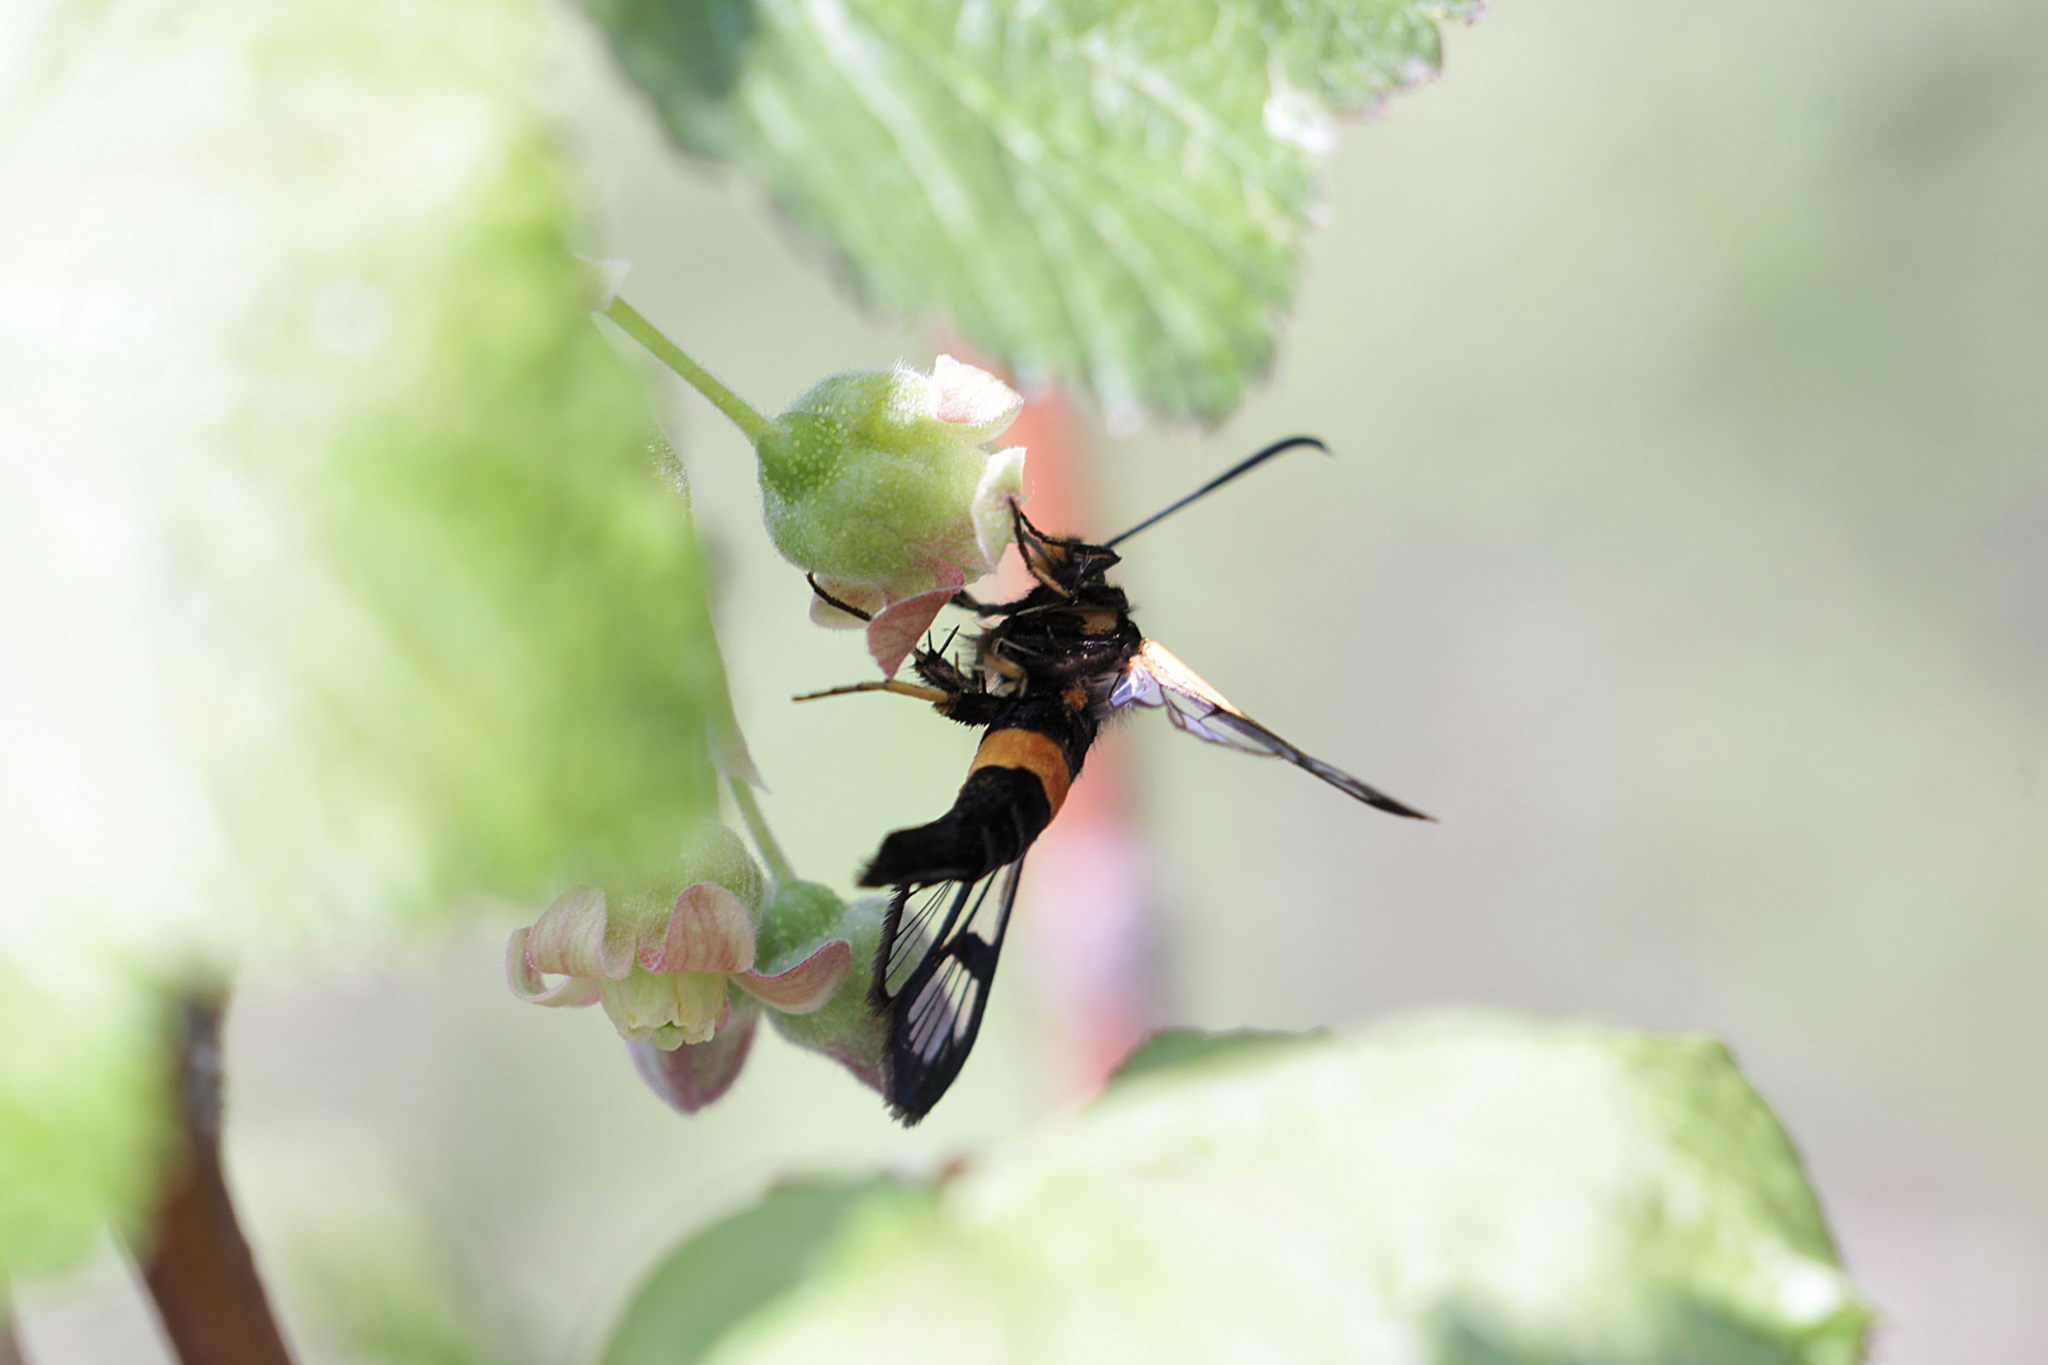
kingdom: Animalia
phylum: Arthropoda
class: Insecta
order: Lepidoptera
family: Sesiidae
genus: Synanthedon
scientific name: Synanthedon culiciformis
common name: Large red-belted clearwing
